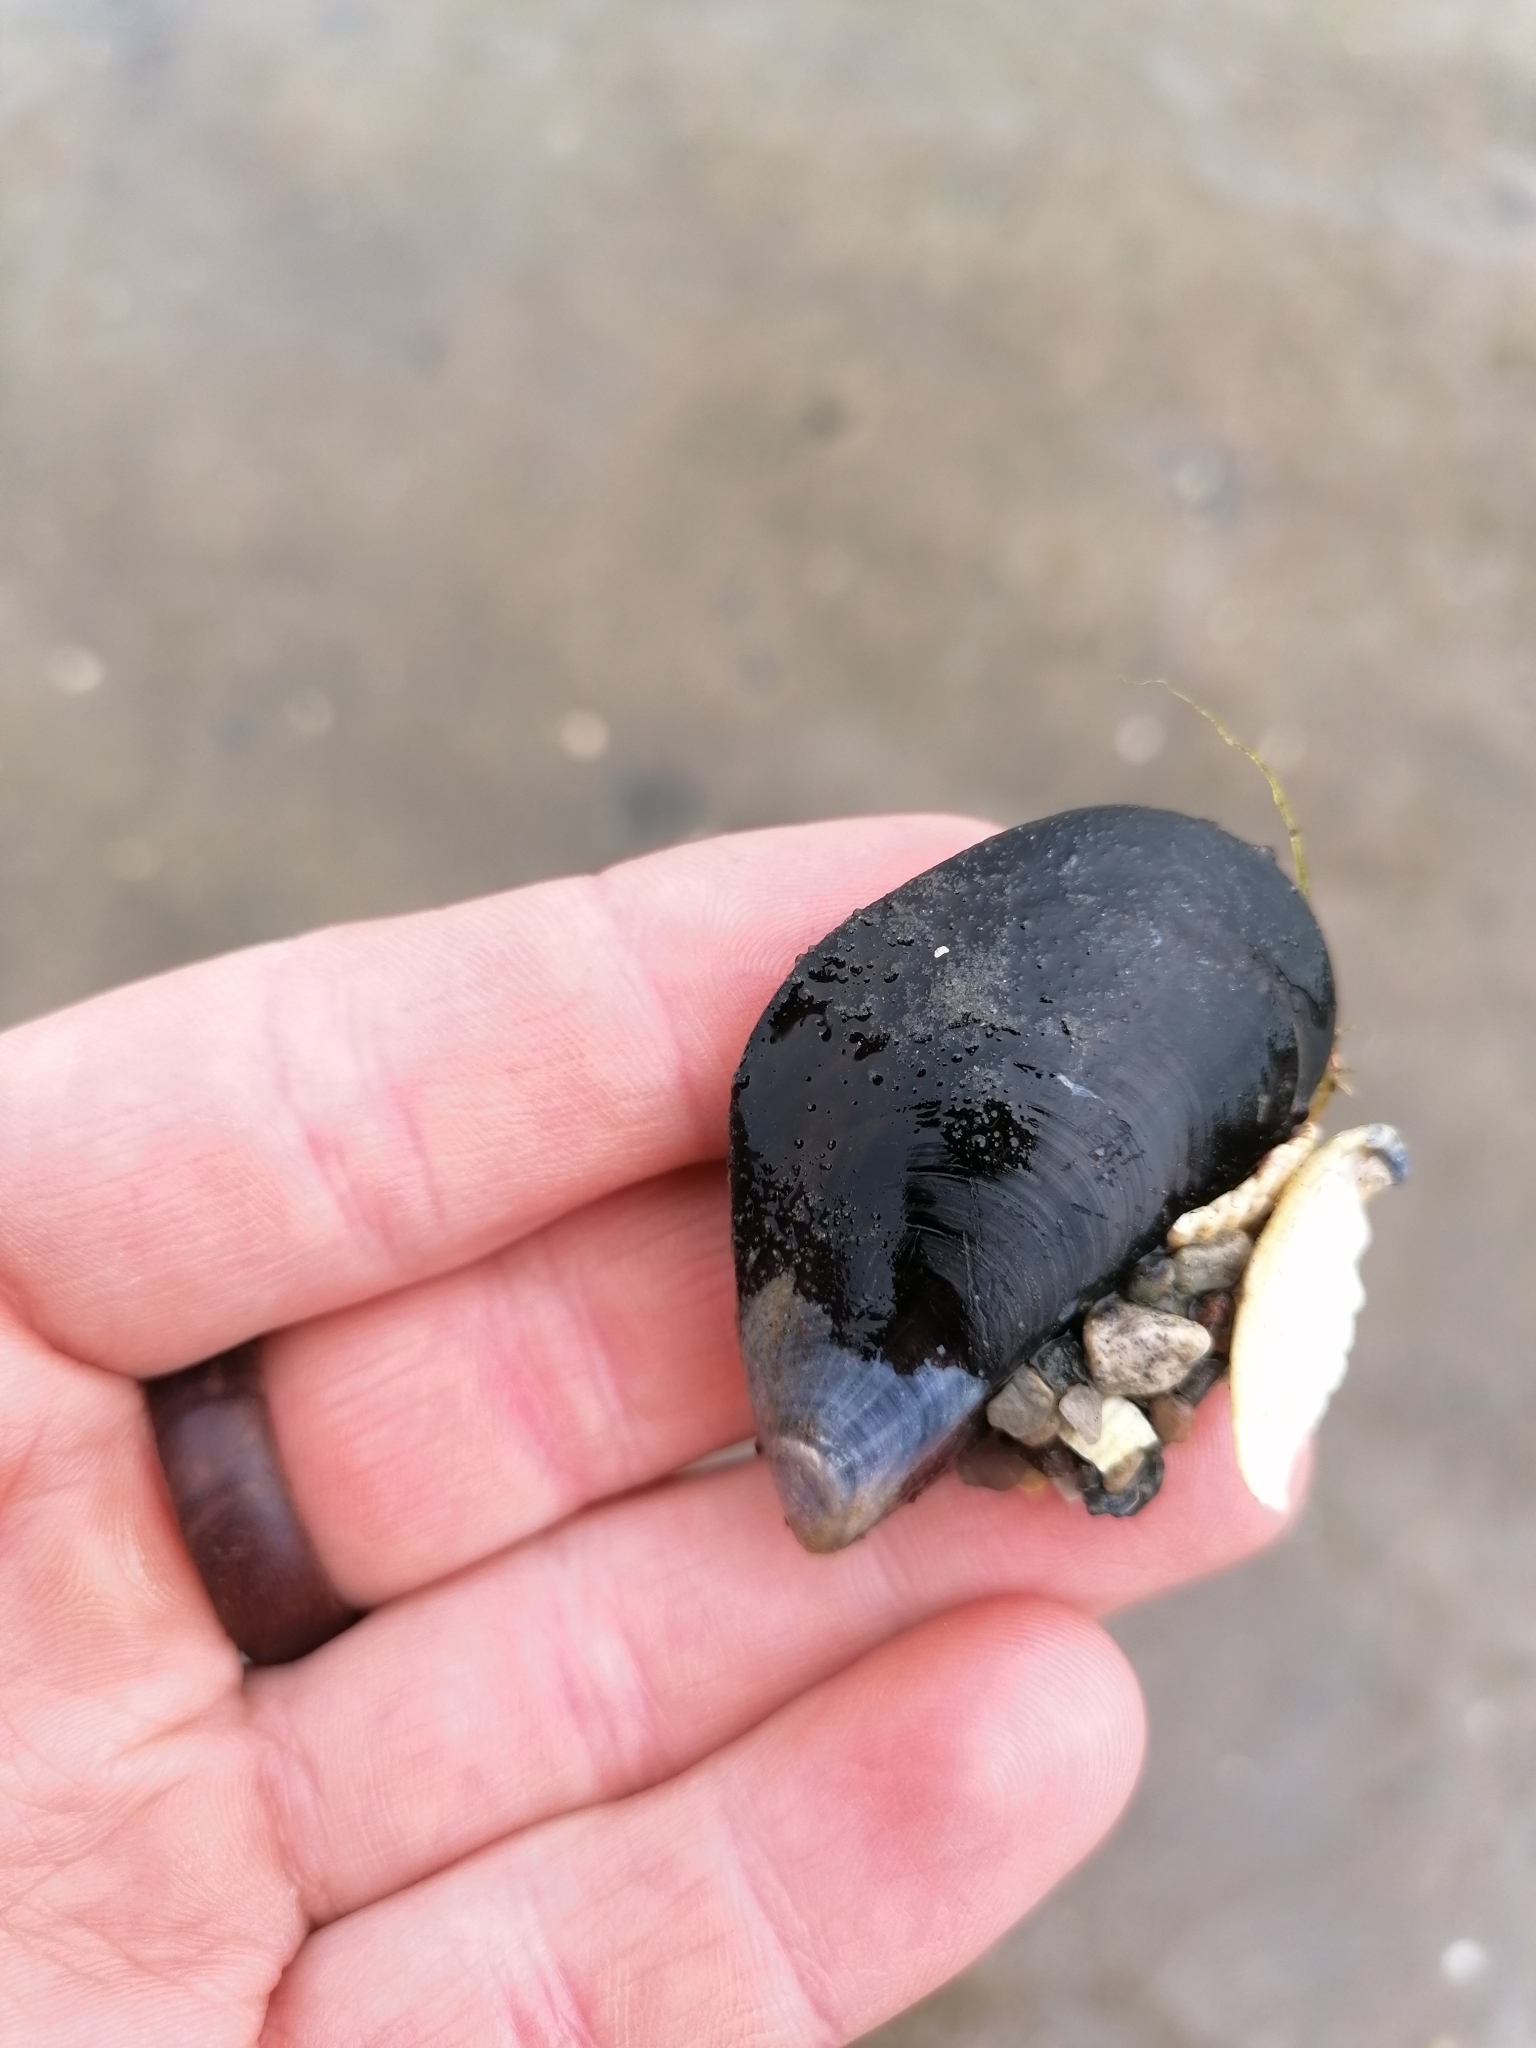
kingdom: Animalia
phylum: Mollusca
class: Bivalvia
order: Mytilida
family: Mytilidae
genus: Mytilus
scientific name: Mytilus edulis
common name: Blue mussel
